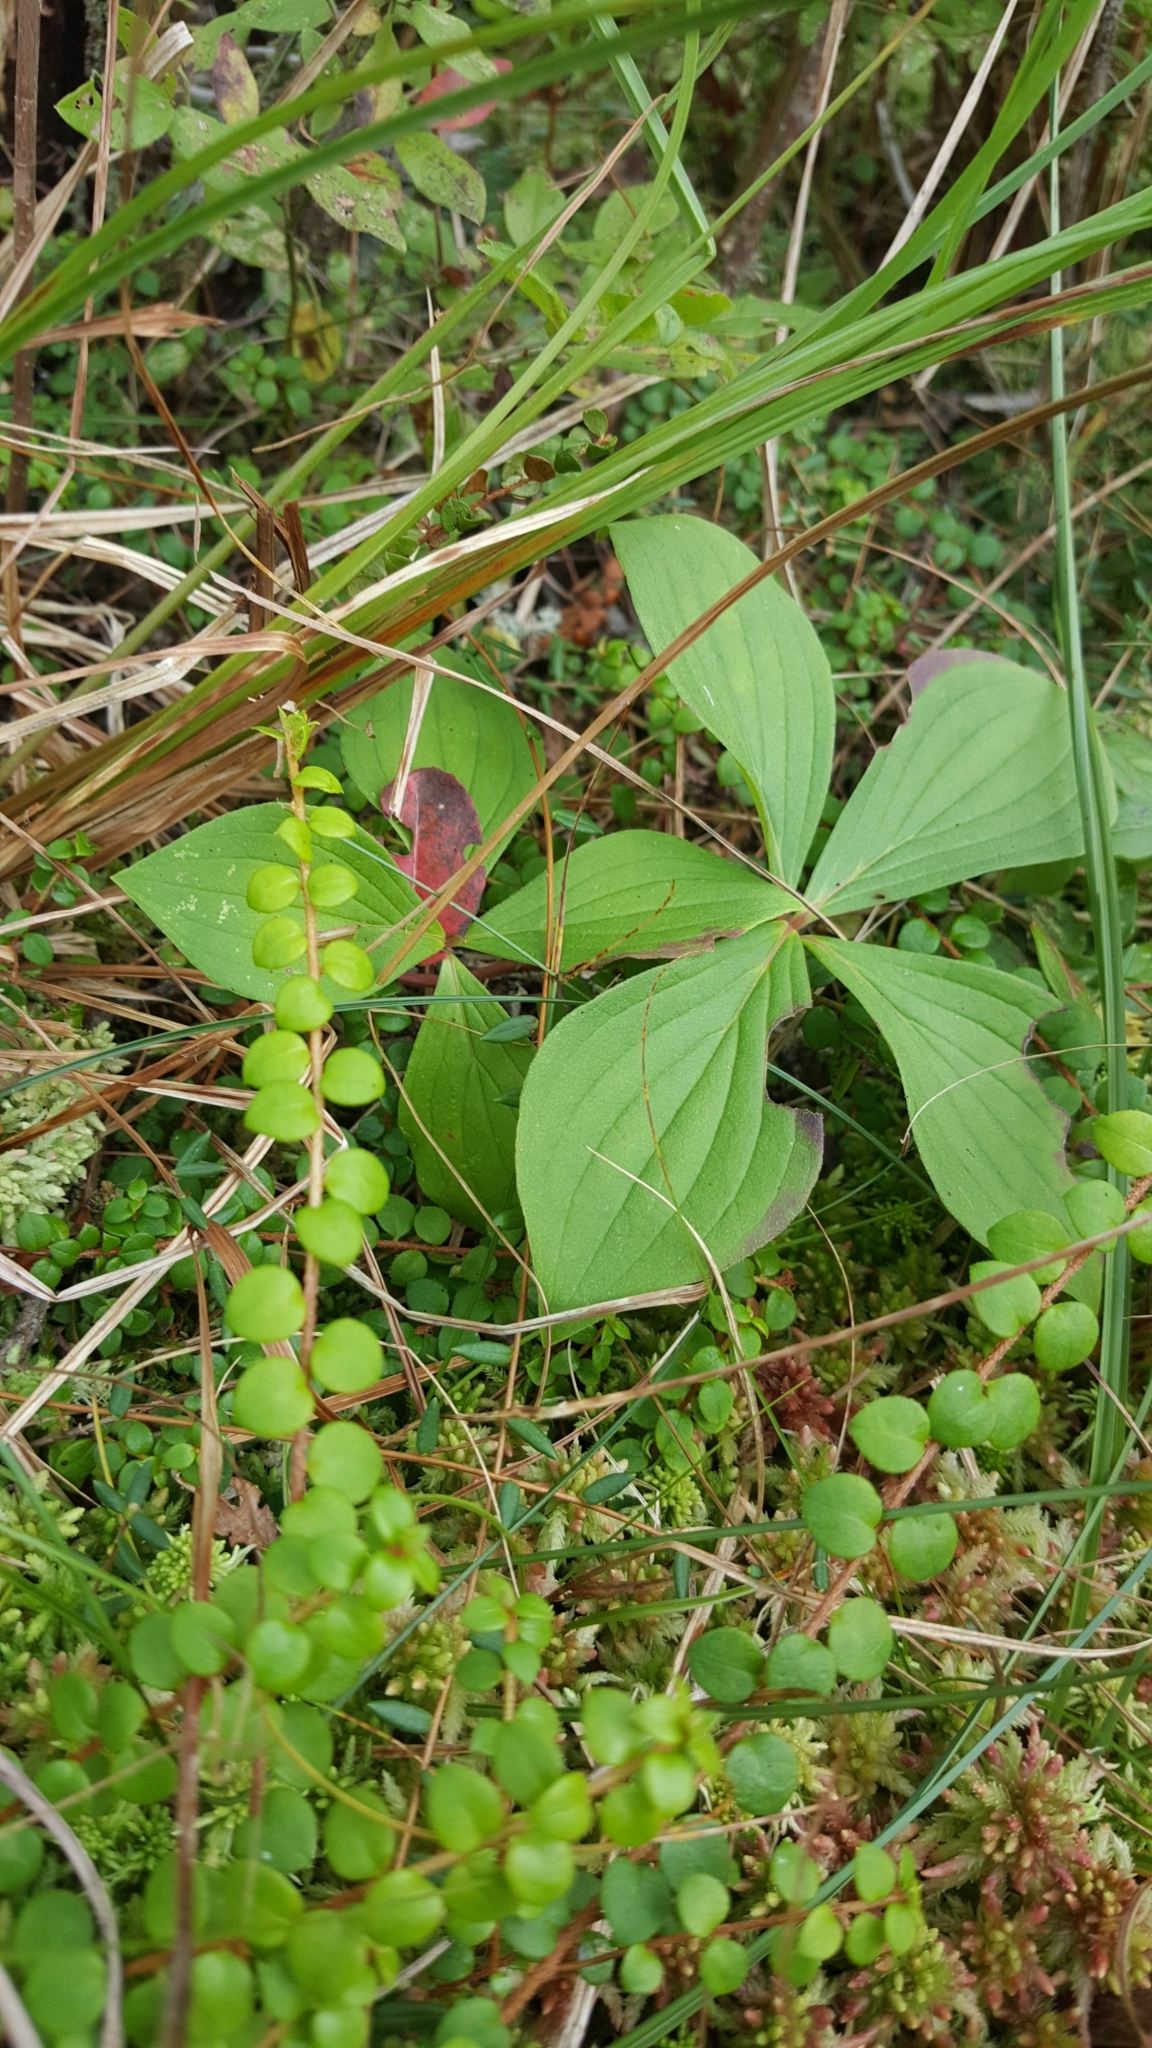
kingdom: Plantae
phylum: Tracheophyta
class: Magnoliopsida
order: Cornales
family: Cornaceae
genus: Cornus
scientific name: Cornus canadensis
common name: Creeping dogwood
